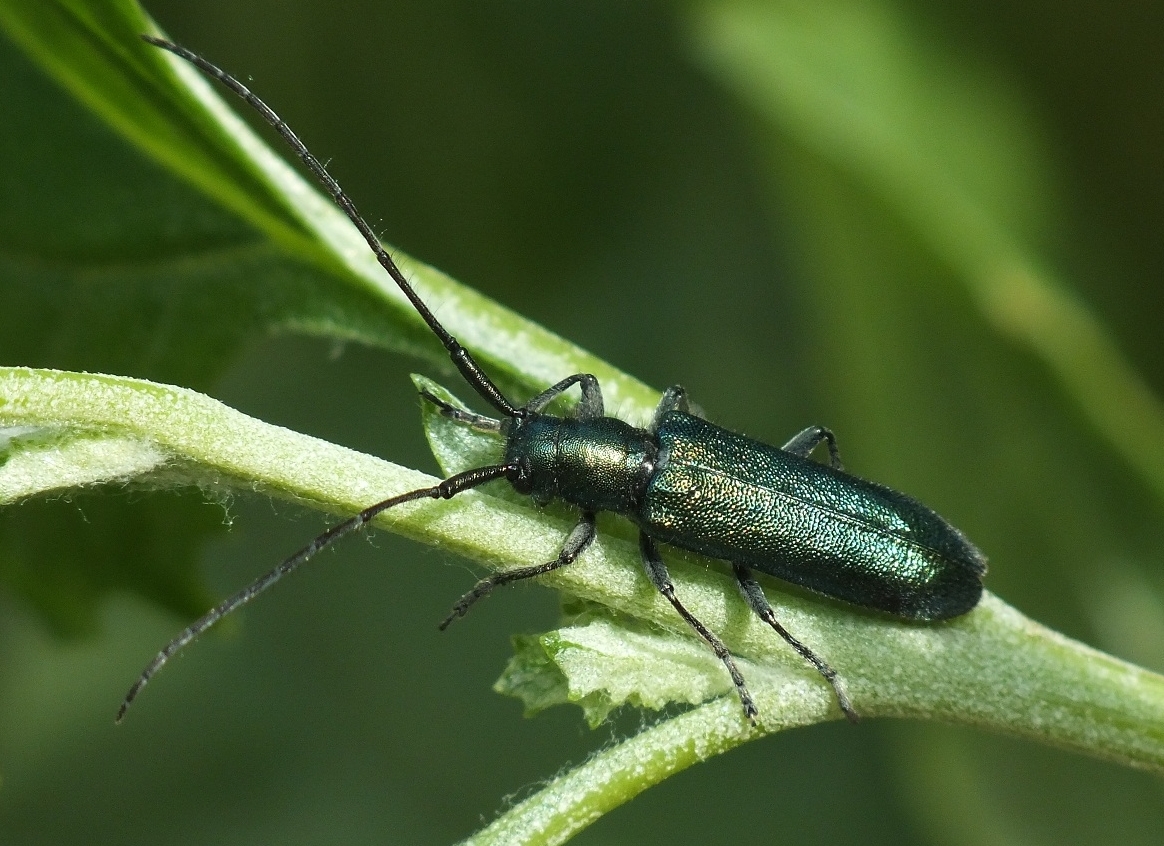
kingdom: Animalia
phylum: Arthropoda
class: Insecta
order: Coleoptera
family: Cerambycidae
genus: Agapanthia
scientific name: Agapanthia violacea
